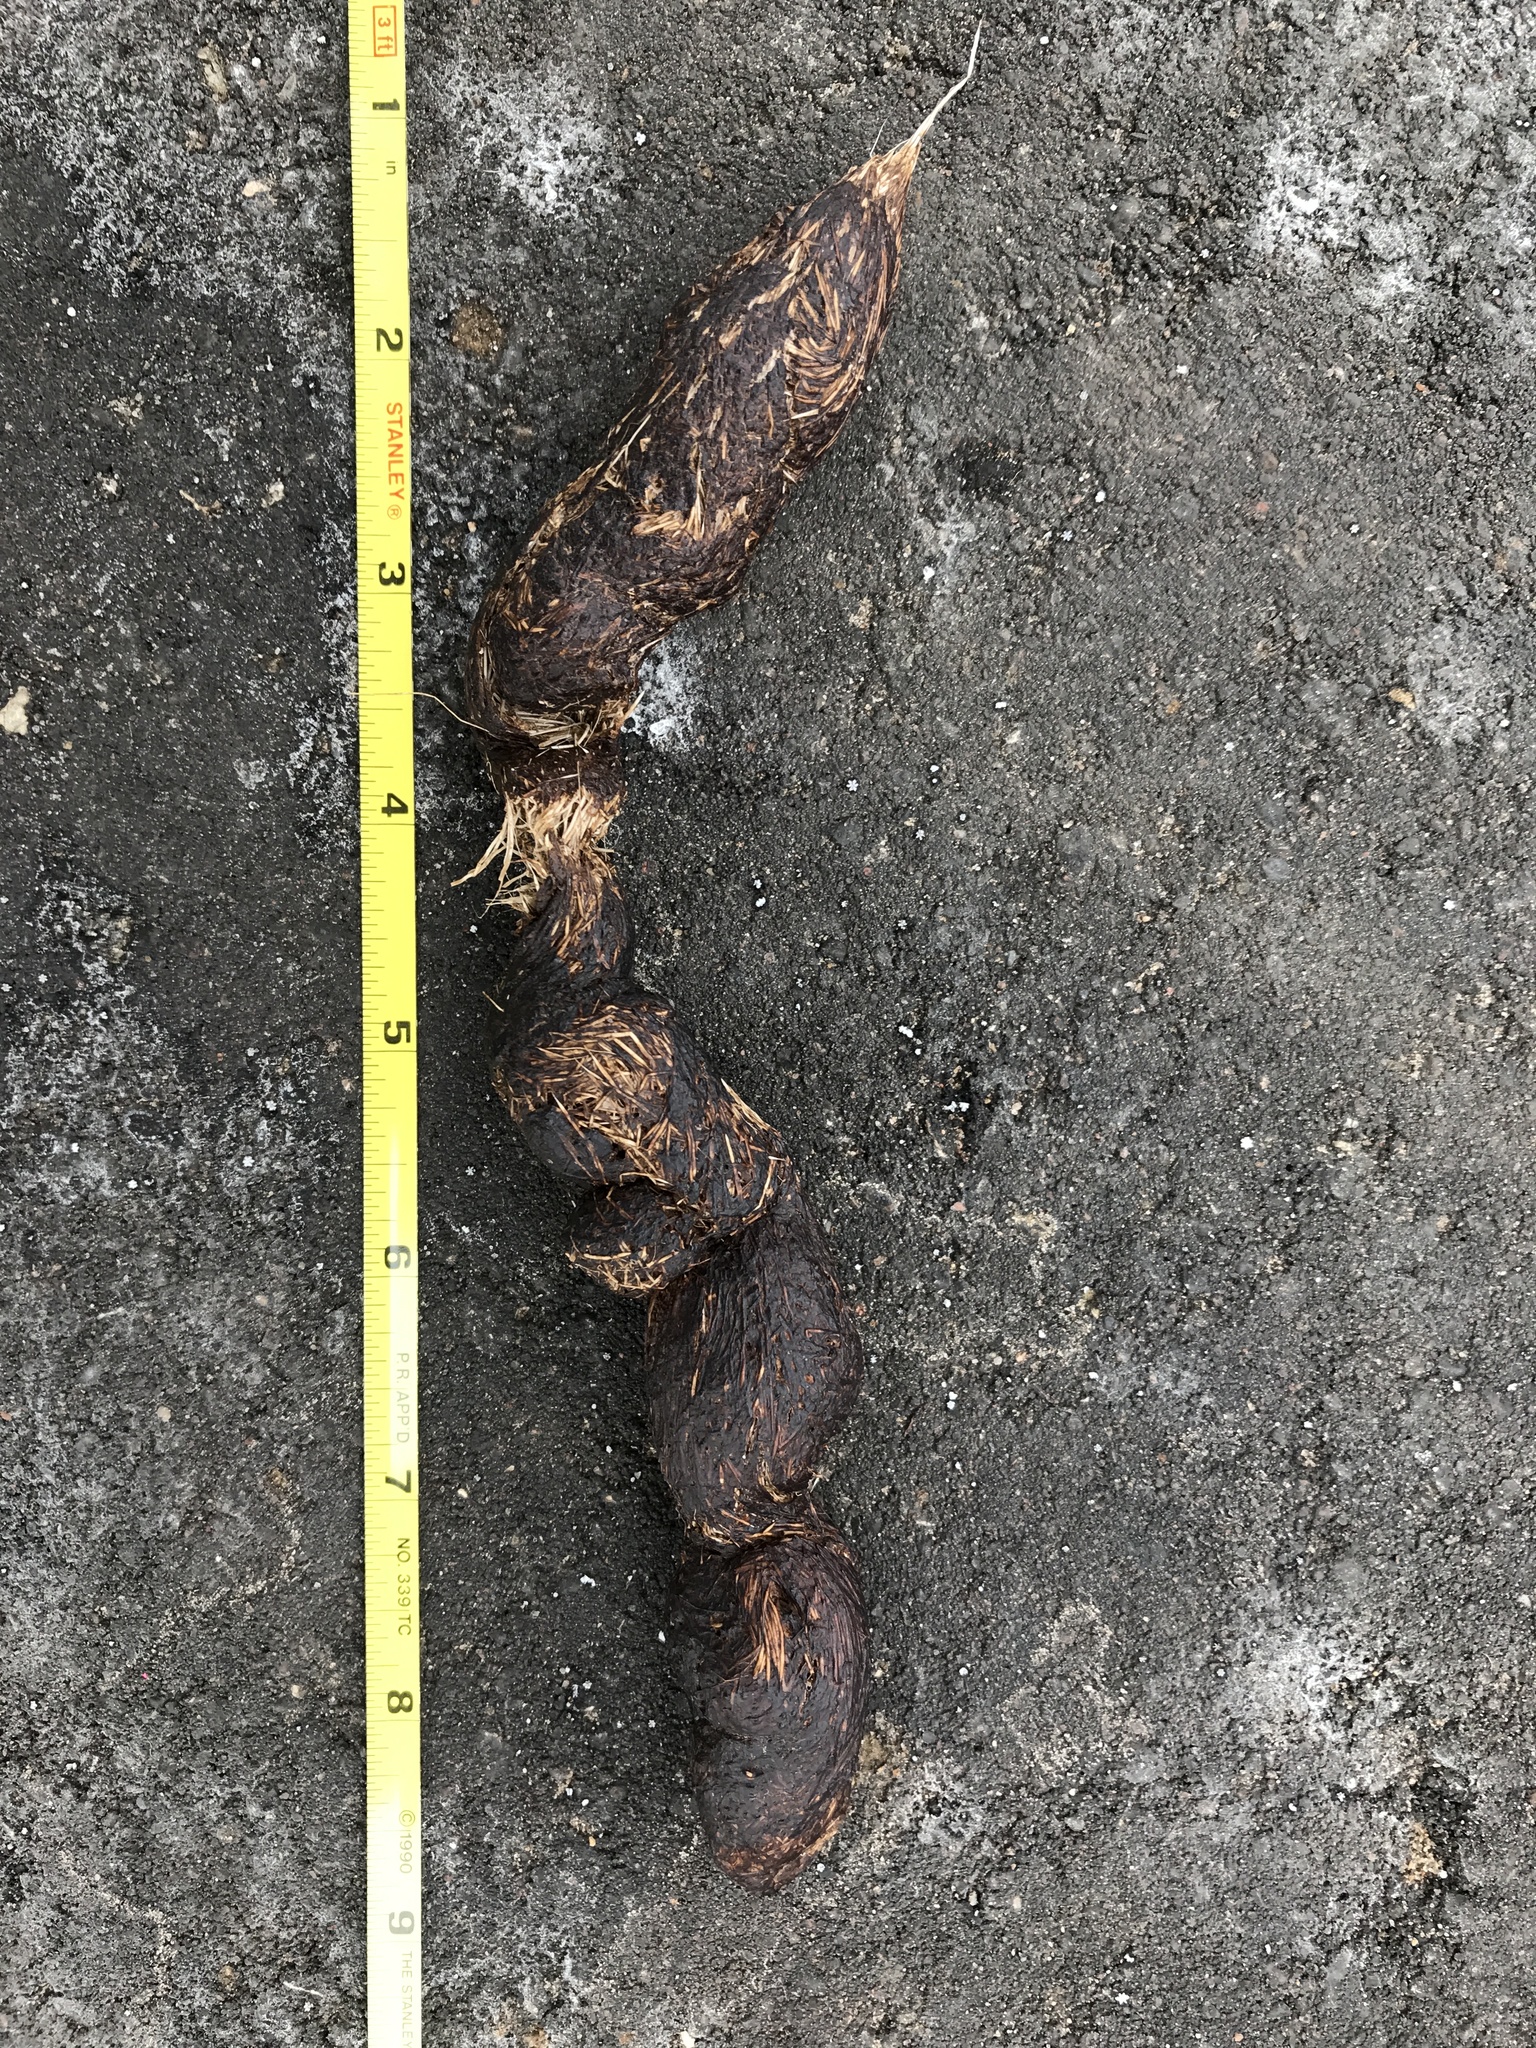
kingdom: Animalia
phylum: Chordata
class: Mammalia
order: Carnivora
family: Canidae
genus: Canis
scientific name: Canis latrans
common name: Coyote
